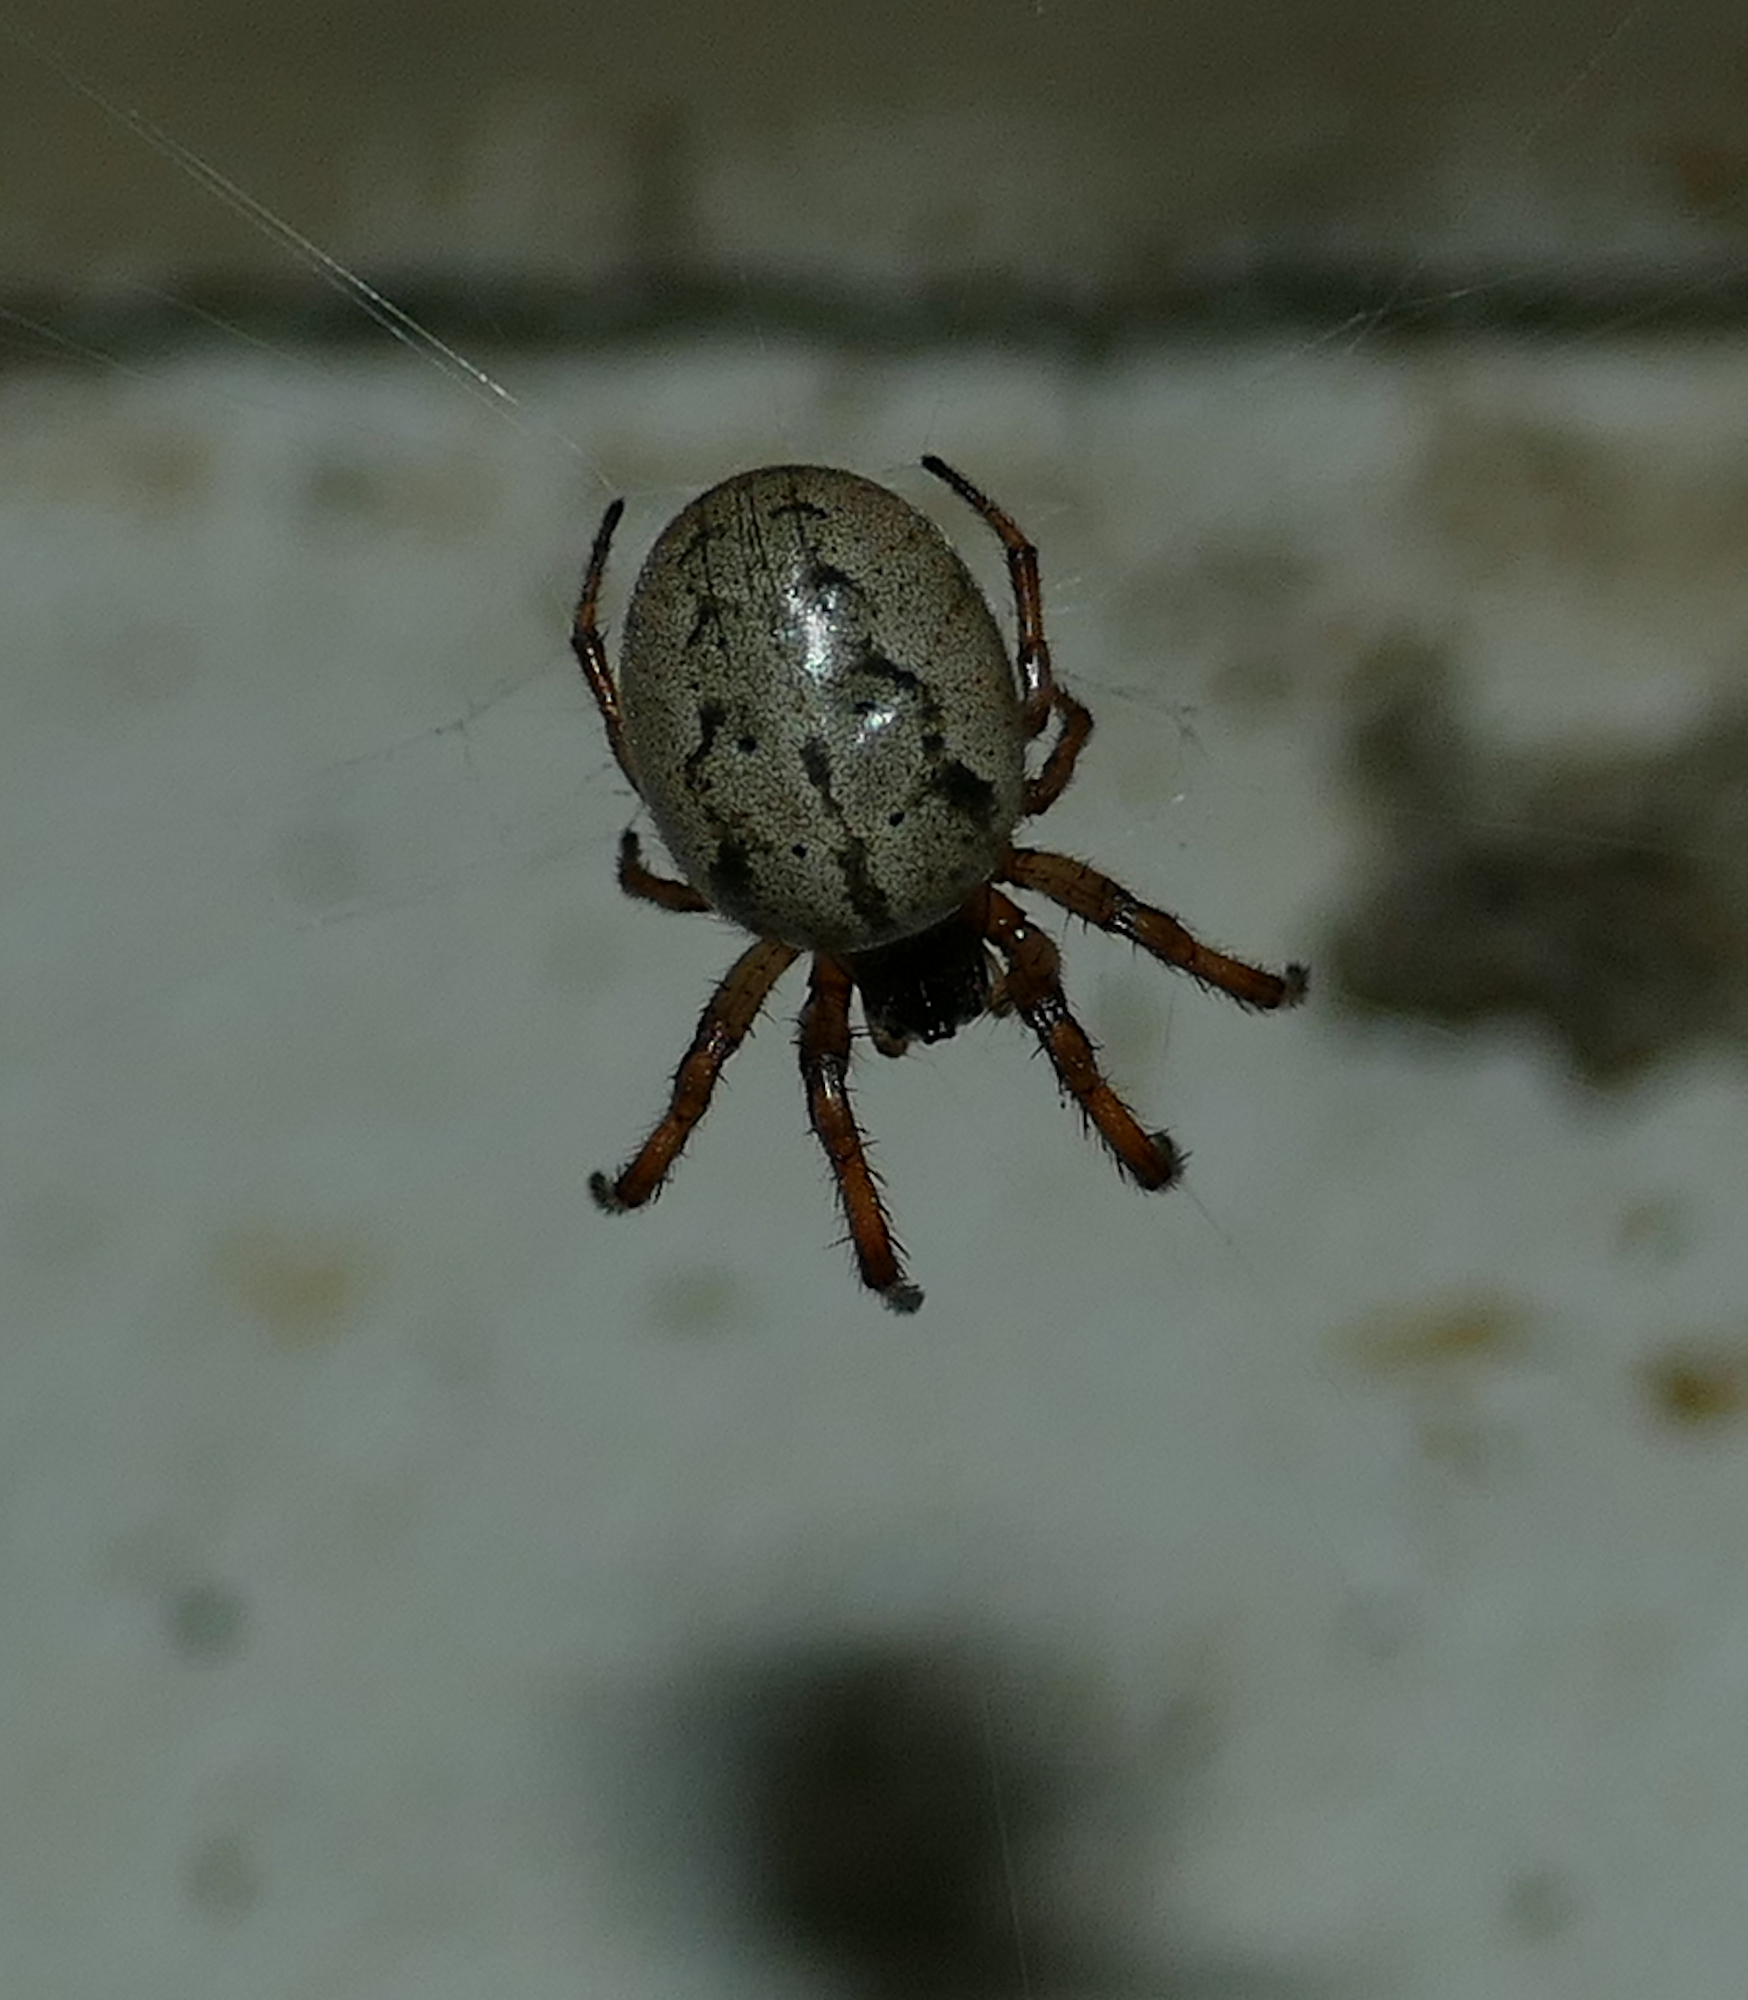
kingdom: Animalia
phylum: Arthropoda
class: Arachnida
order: Araneae
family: Araneidae
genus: Metazygia
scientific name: Metazygia wittfeldae
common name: Orb weavers
